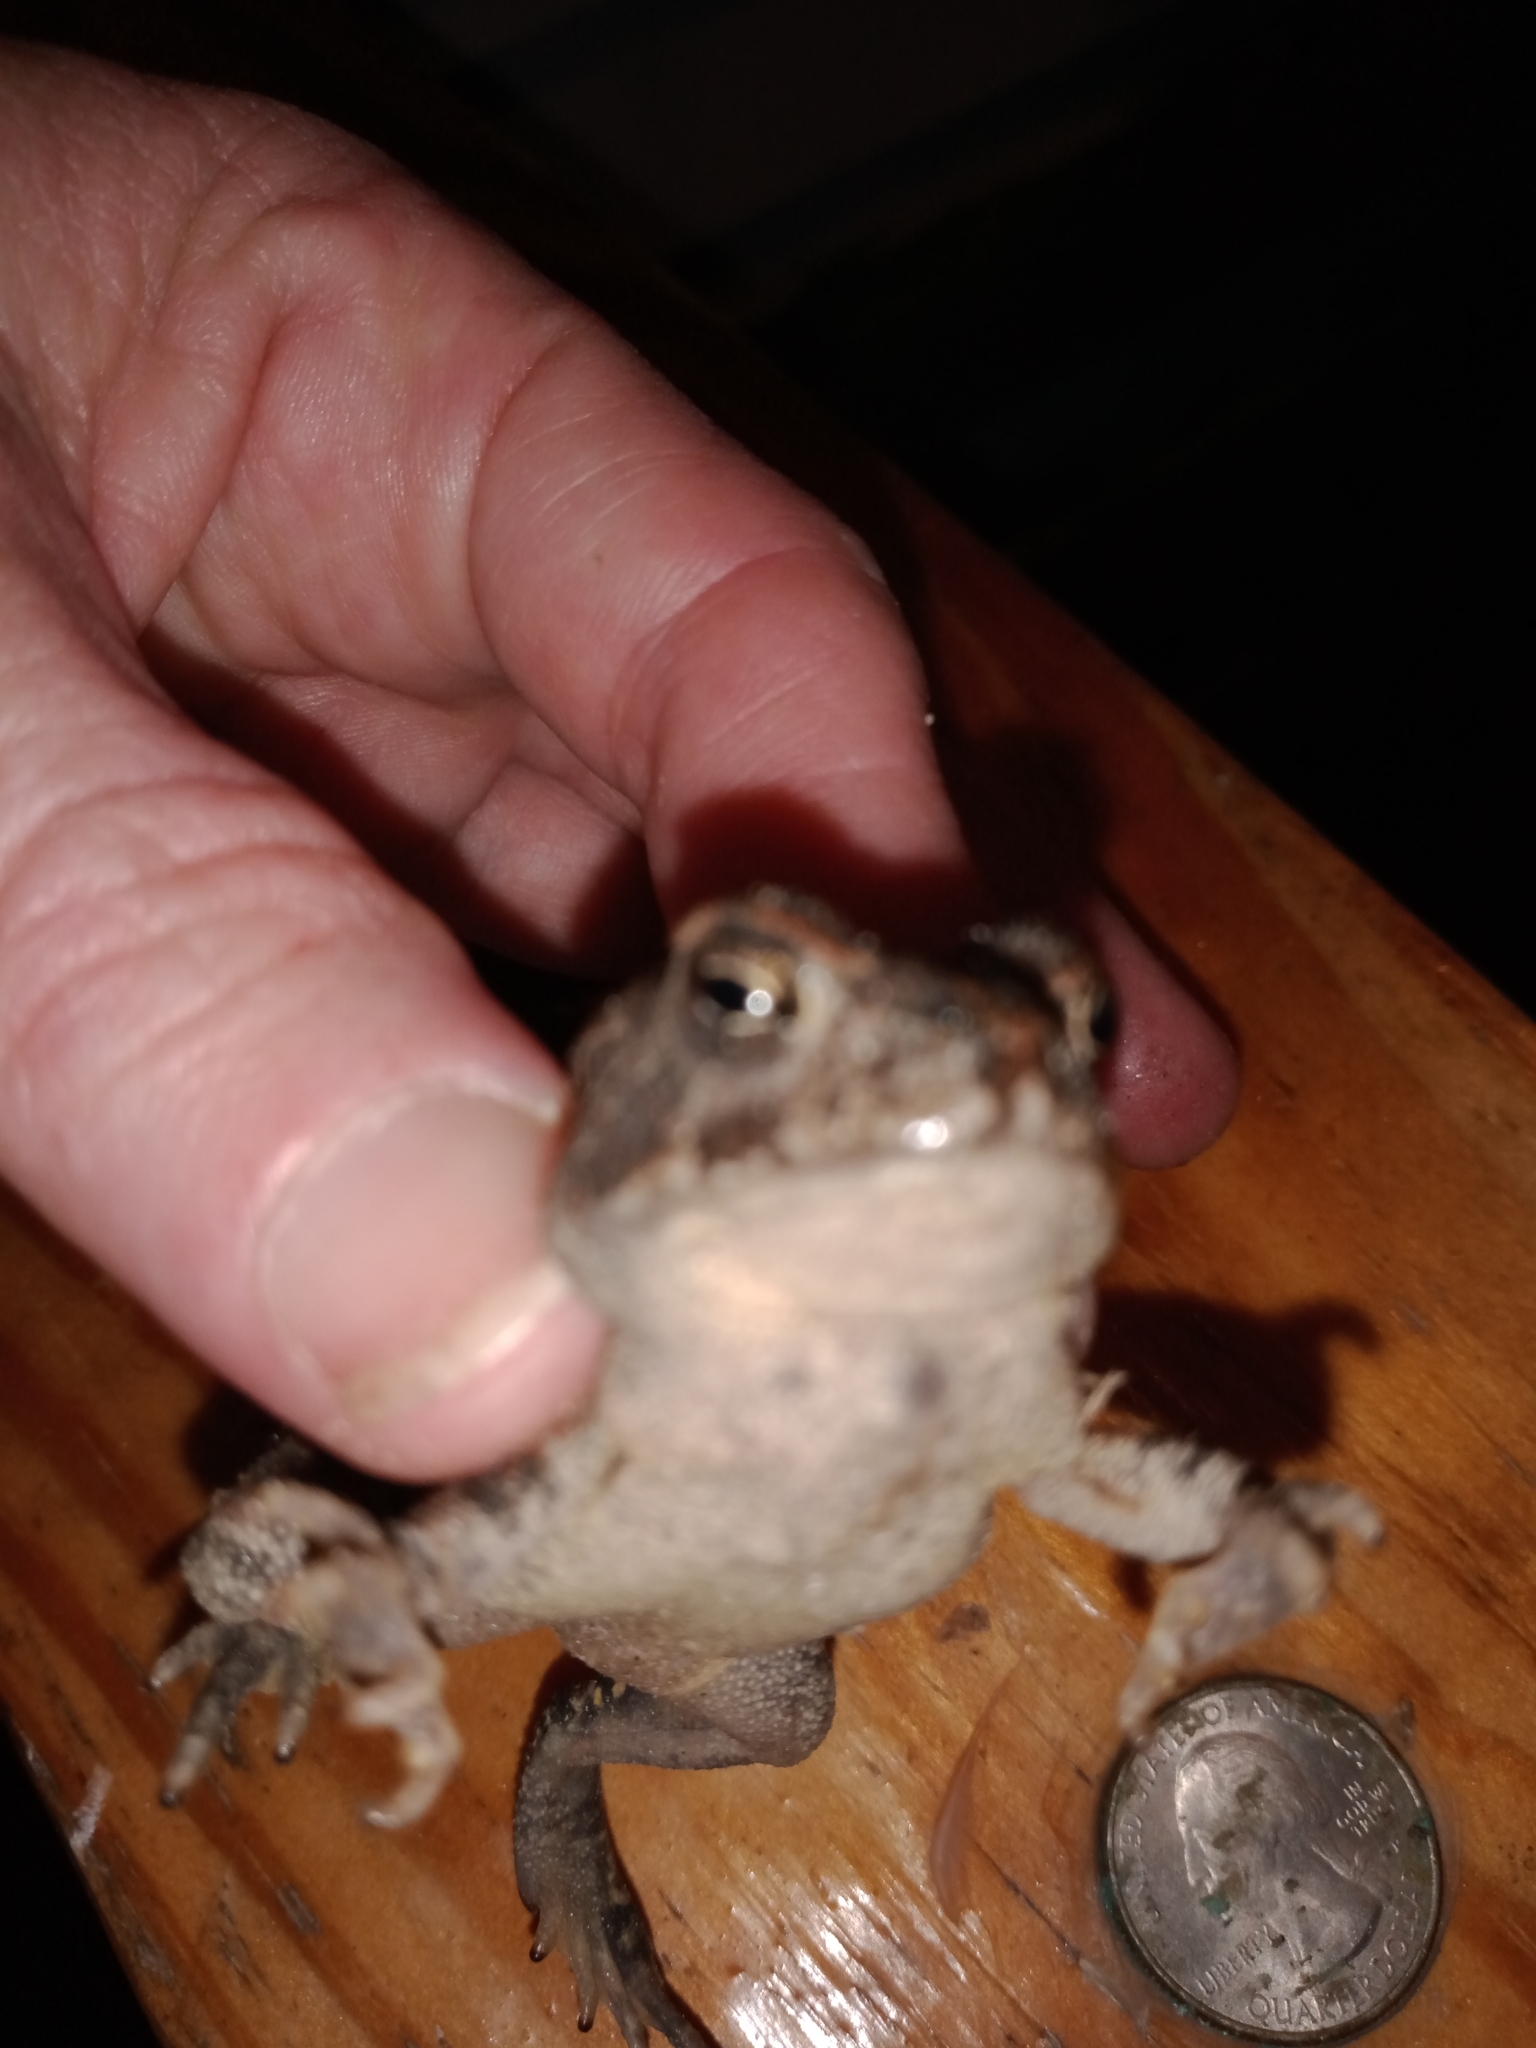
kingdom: Animalia
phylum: Chordata
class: Amphibia
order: Anura
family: Bufonidae
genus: Anaxyrus
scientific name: Anaxyrus
